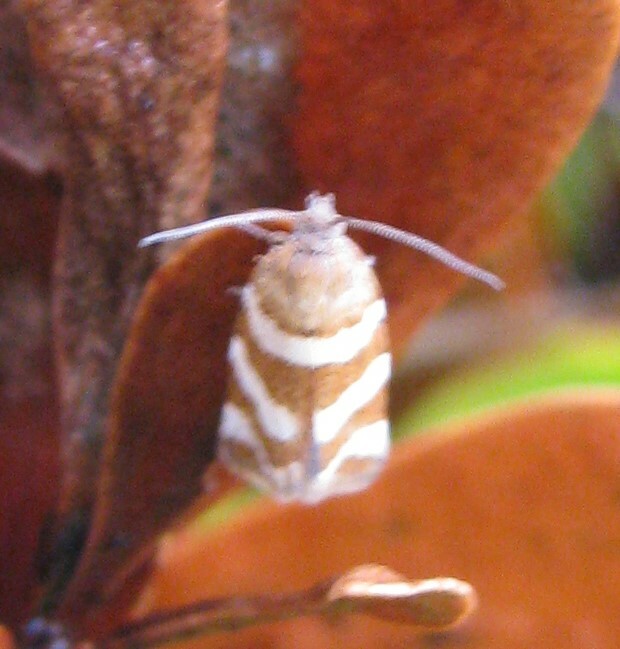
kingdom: Animalia
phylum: Arthropoda
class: Insecta
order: Lepidoptera
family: Tortricidae
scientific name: Tortricidae
